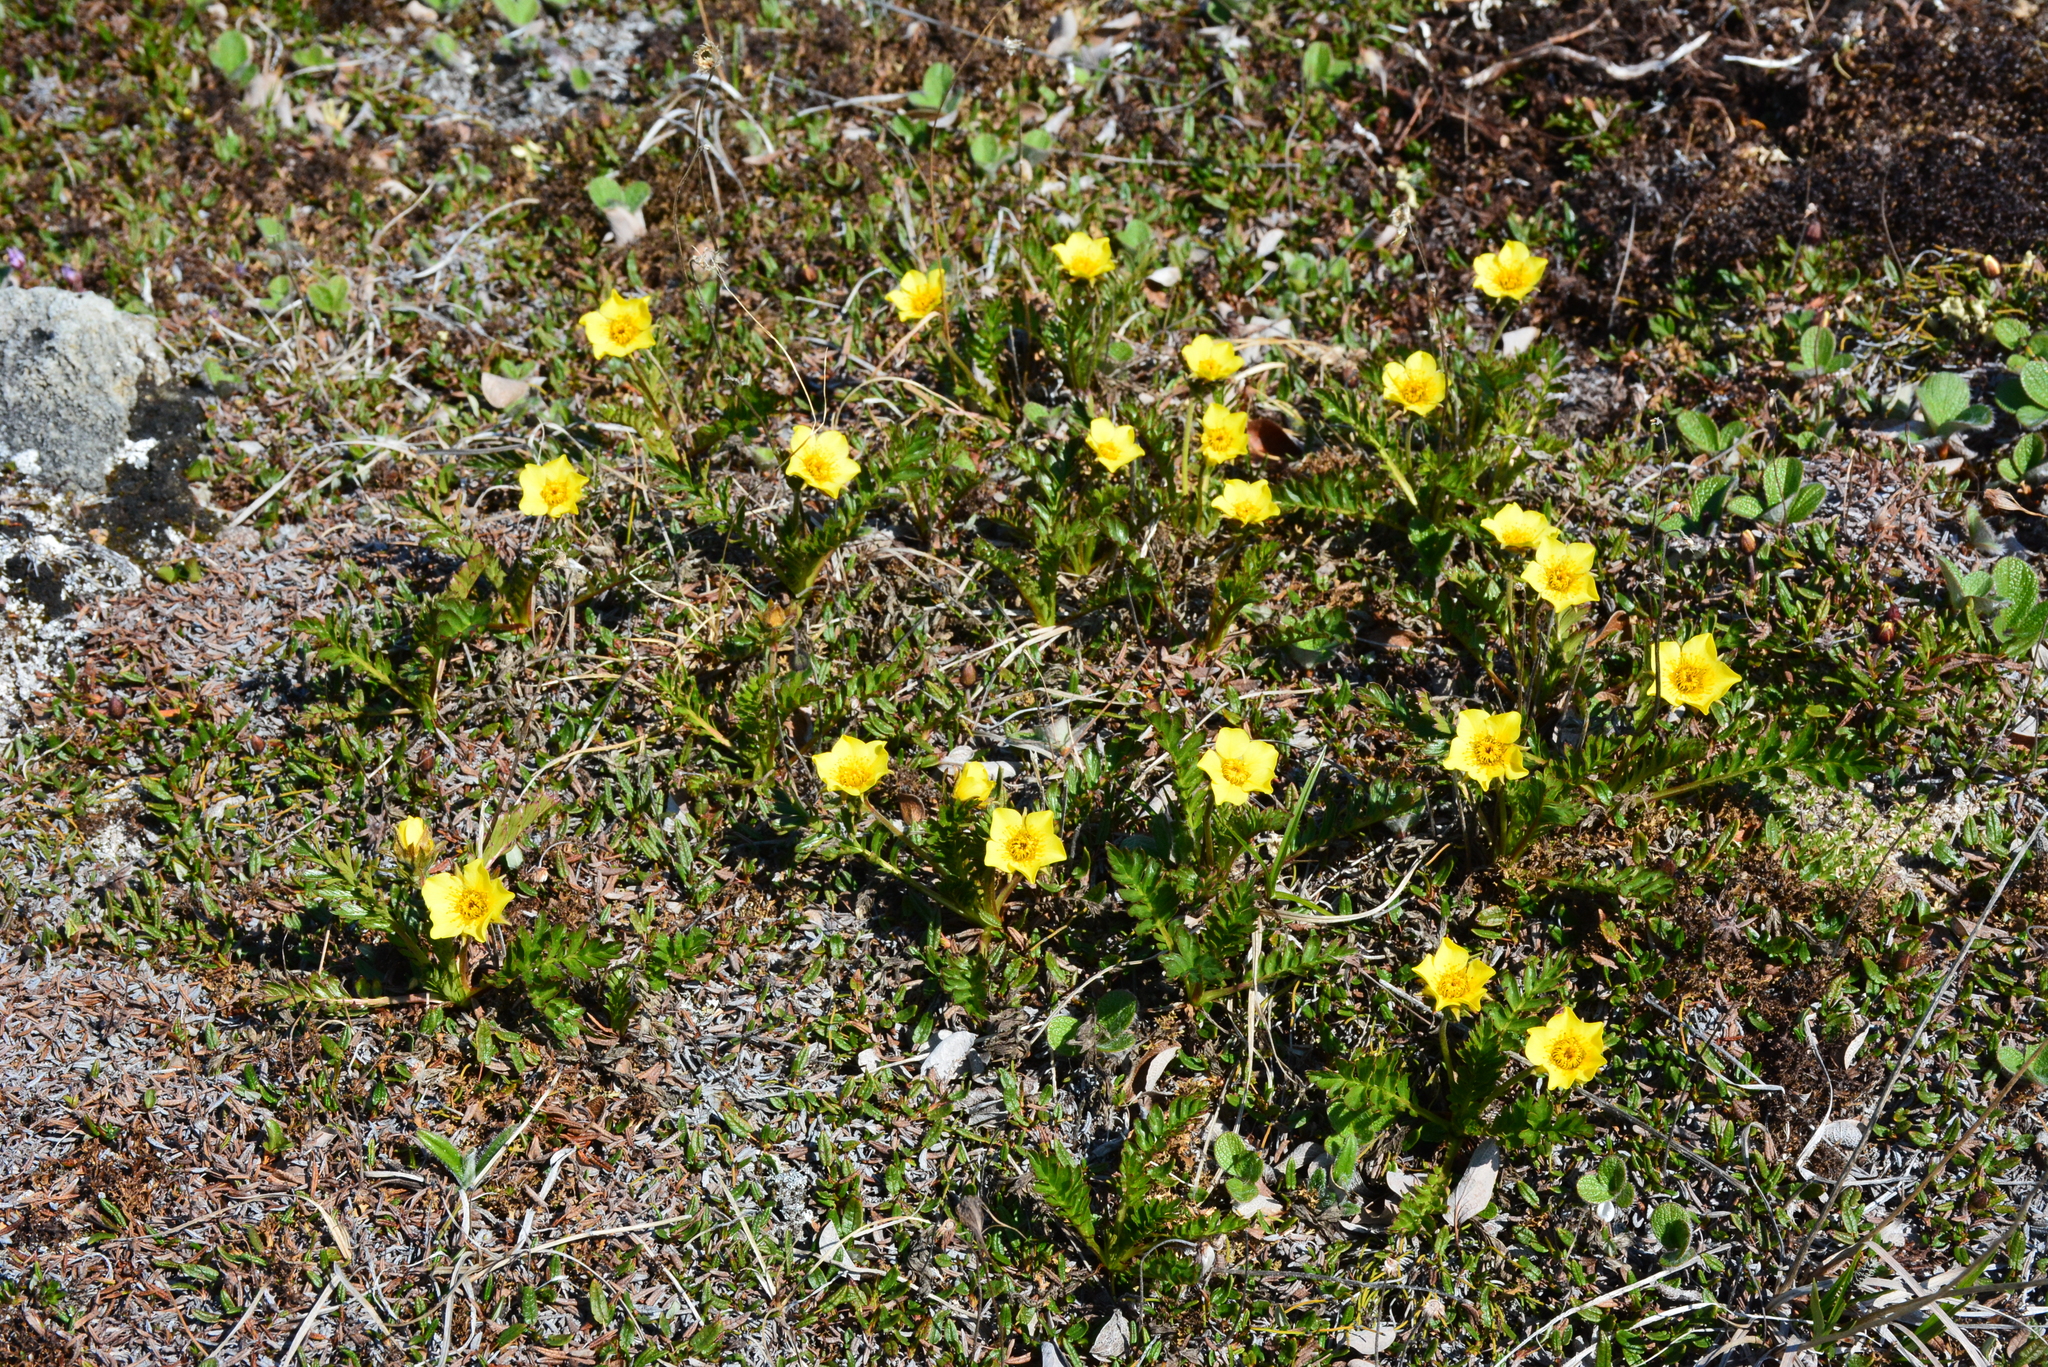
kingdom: Plantae
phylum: Tracheophyta
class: Magnoliopsida
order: Rosales
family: Rosaceae
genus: Geum
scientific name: Geum rossii
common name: Alpine avens
